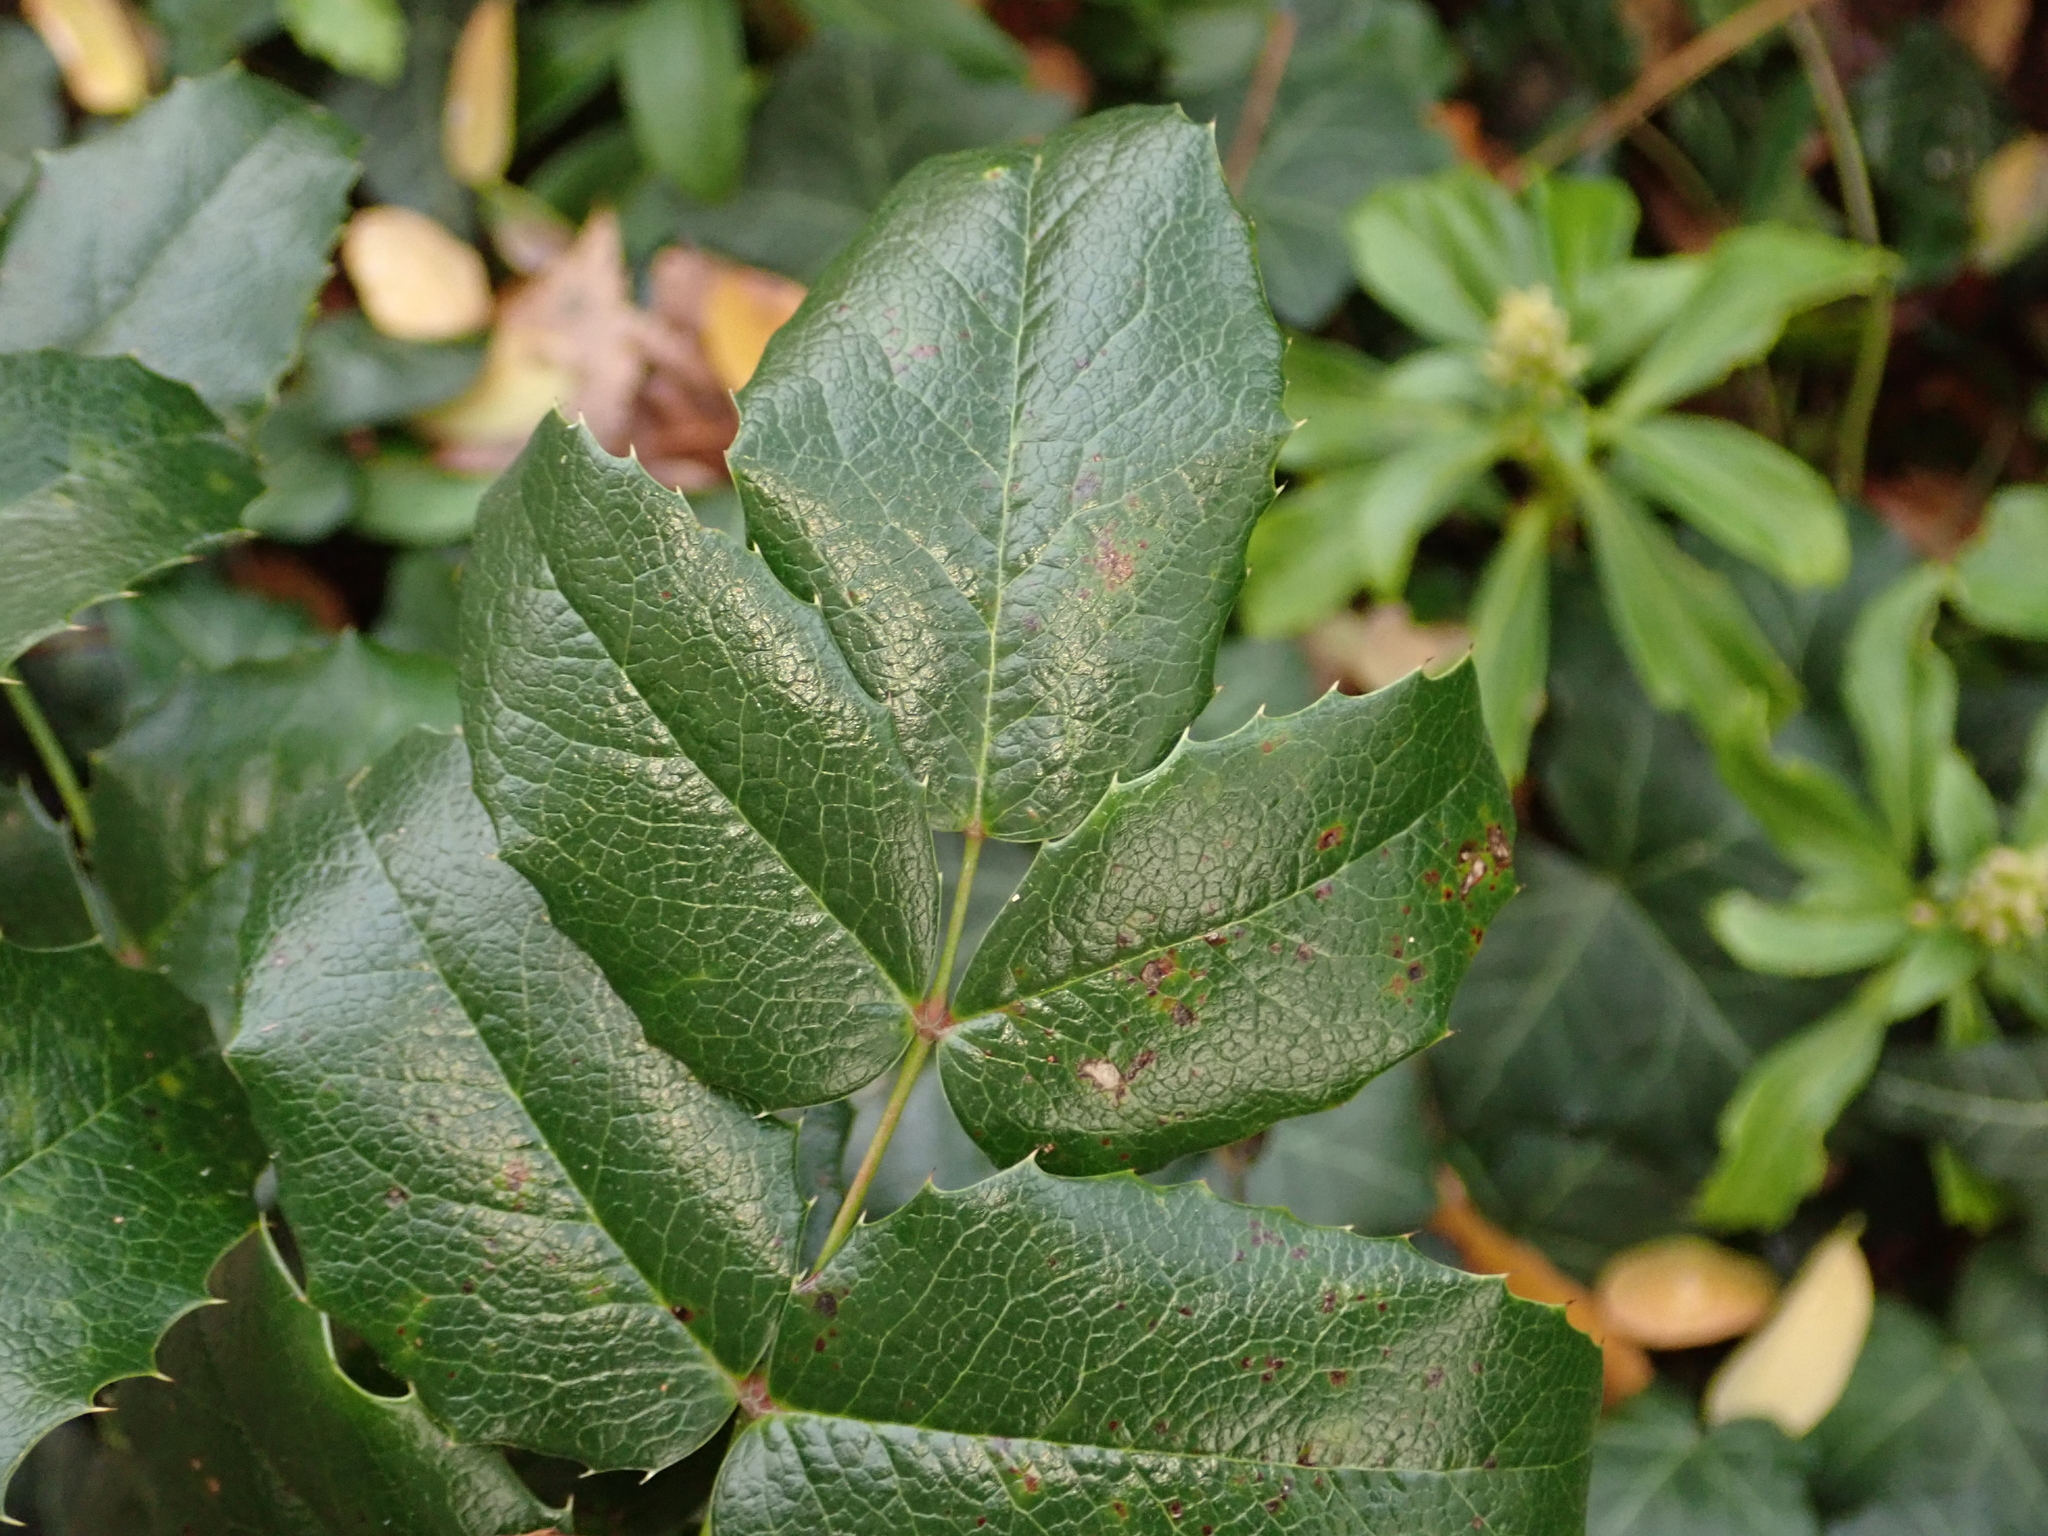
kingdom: Plantae
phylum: Tracheophyta
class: Magnoliopsida
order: Ranunculales
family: Berberidaceae
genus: Mahonia
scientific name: Mahonia aquifolium
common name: Oregon-grape
